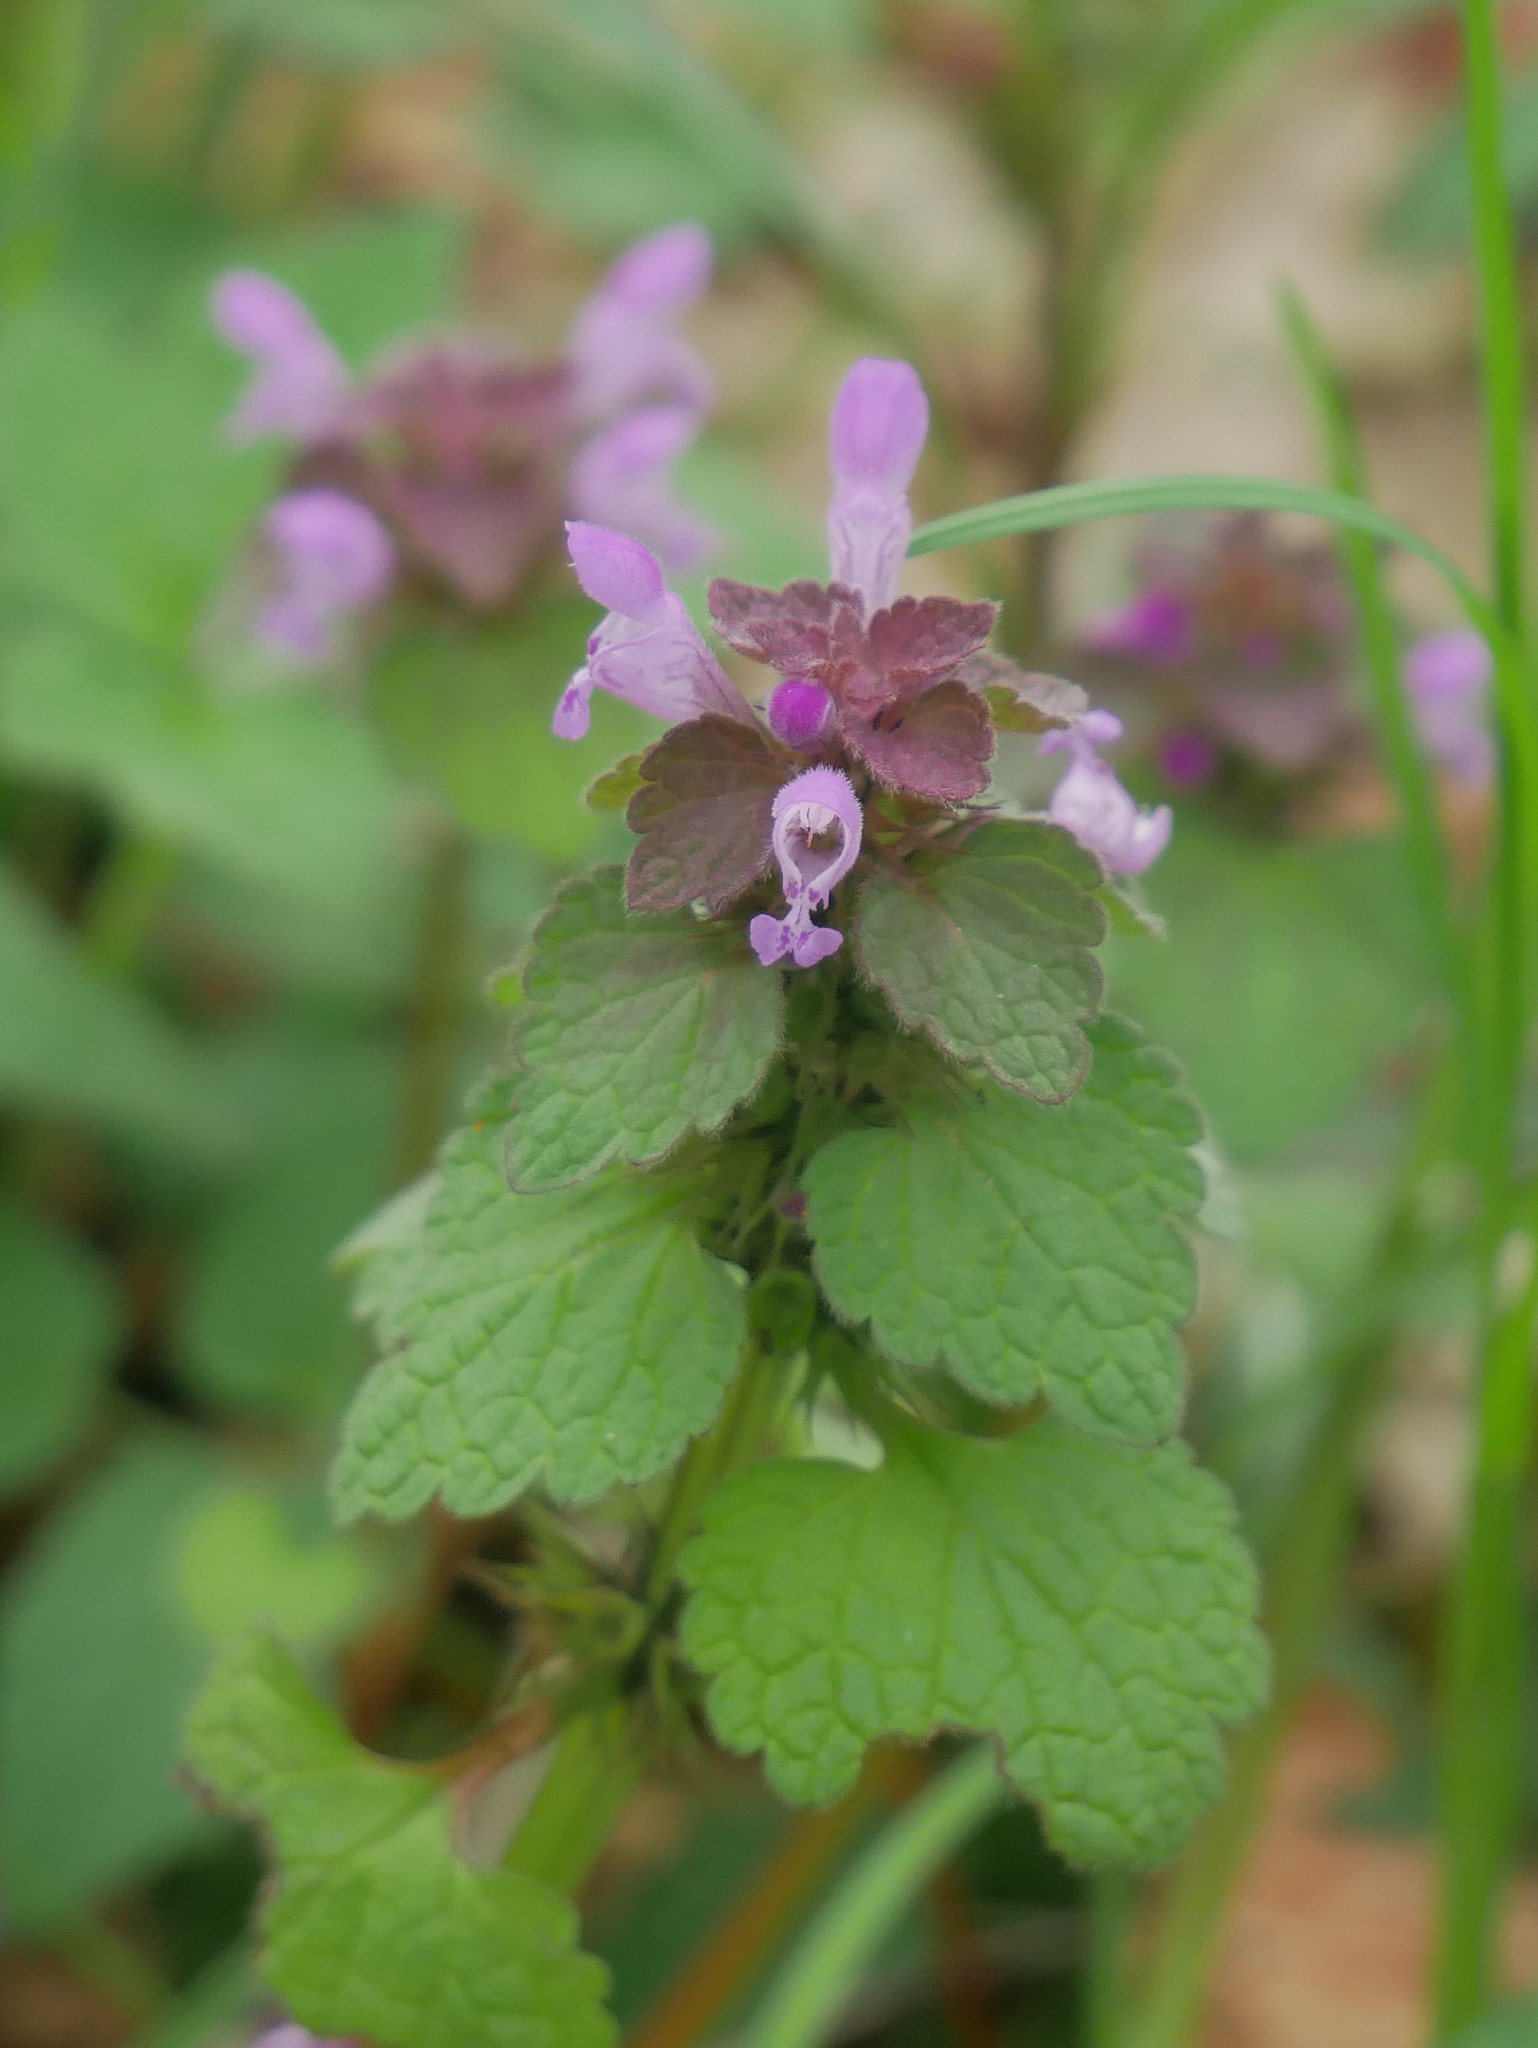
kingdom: Plantae
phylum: Tracheophyta
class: Magnoliopsida
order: Lamiales
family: Lamiaceae
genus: Lamium
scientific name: Lamium purpureum
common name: Red dead-nettle
